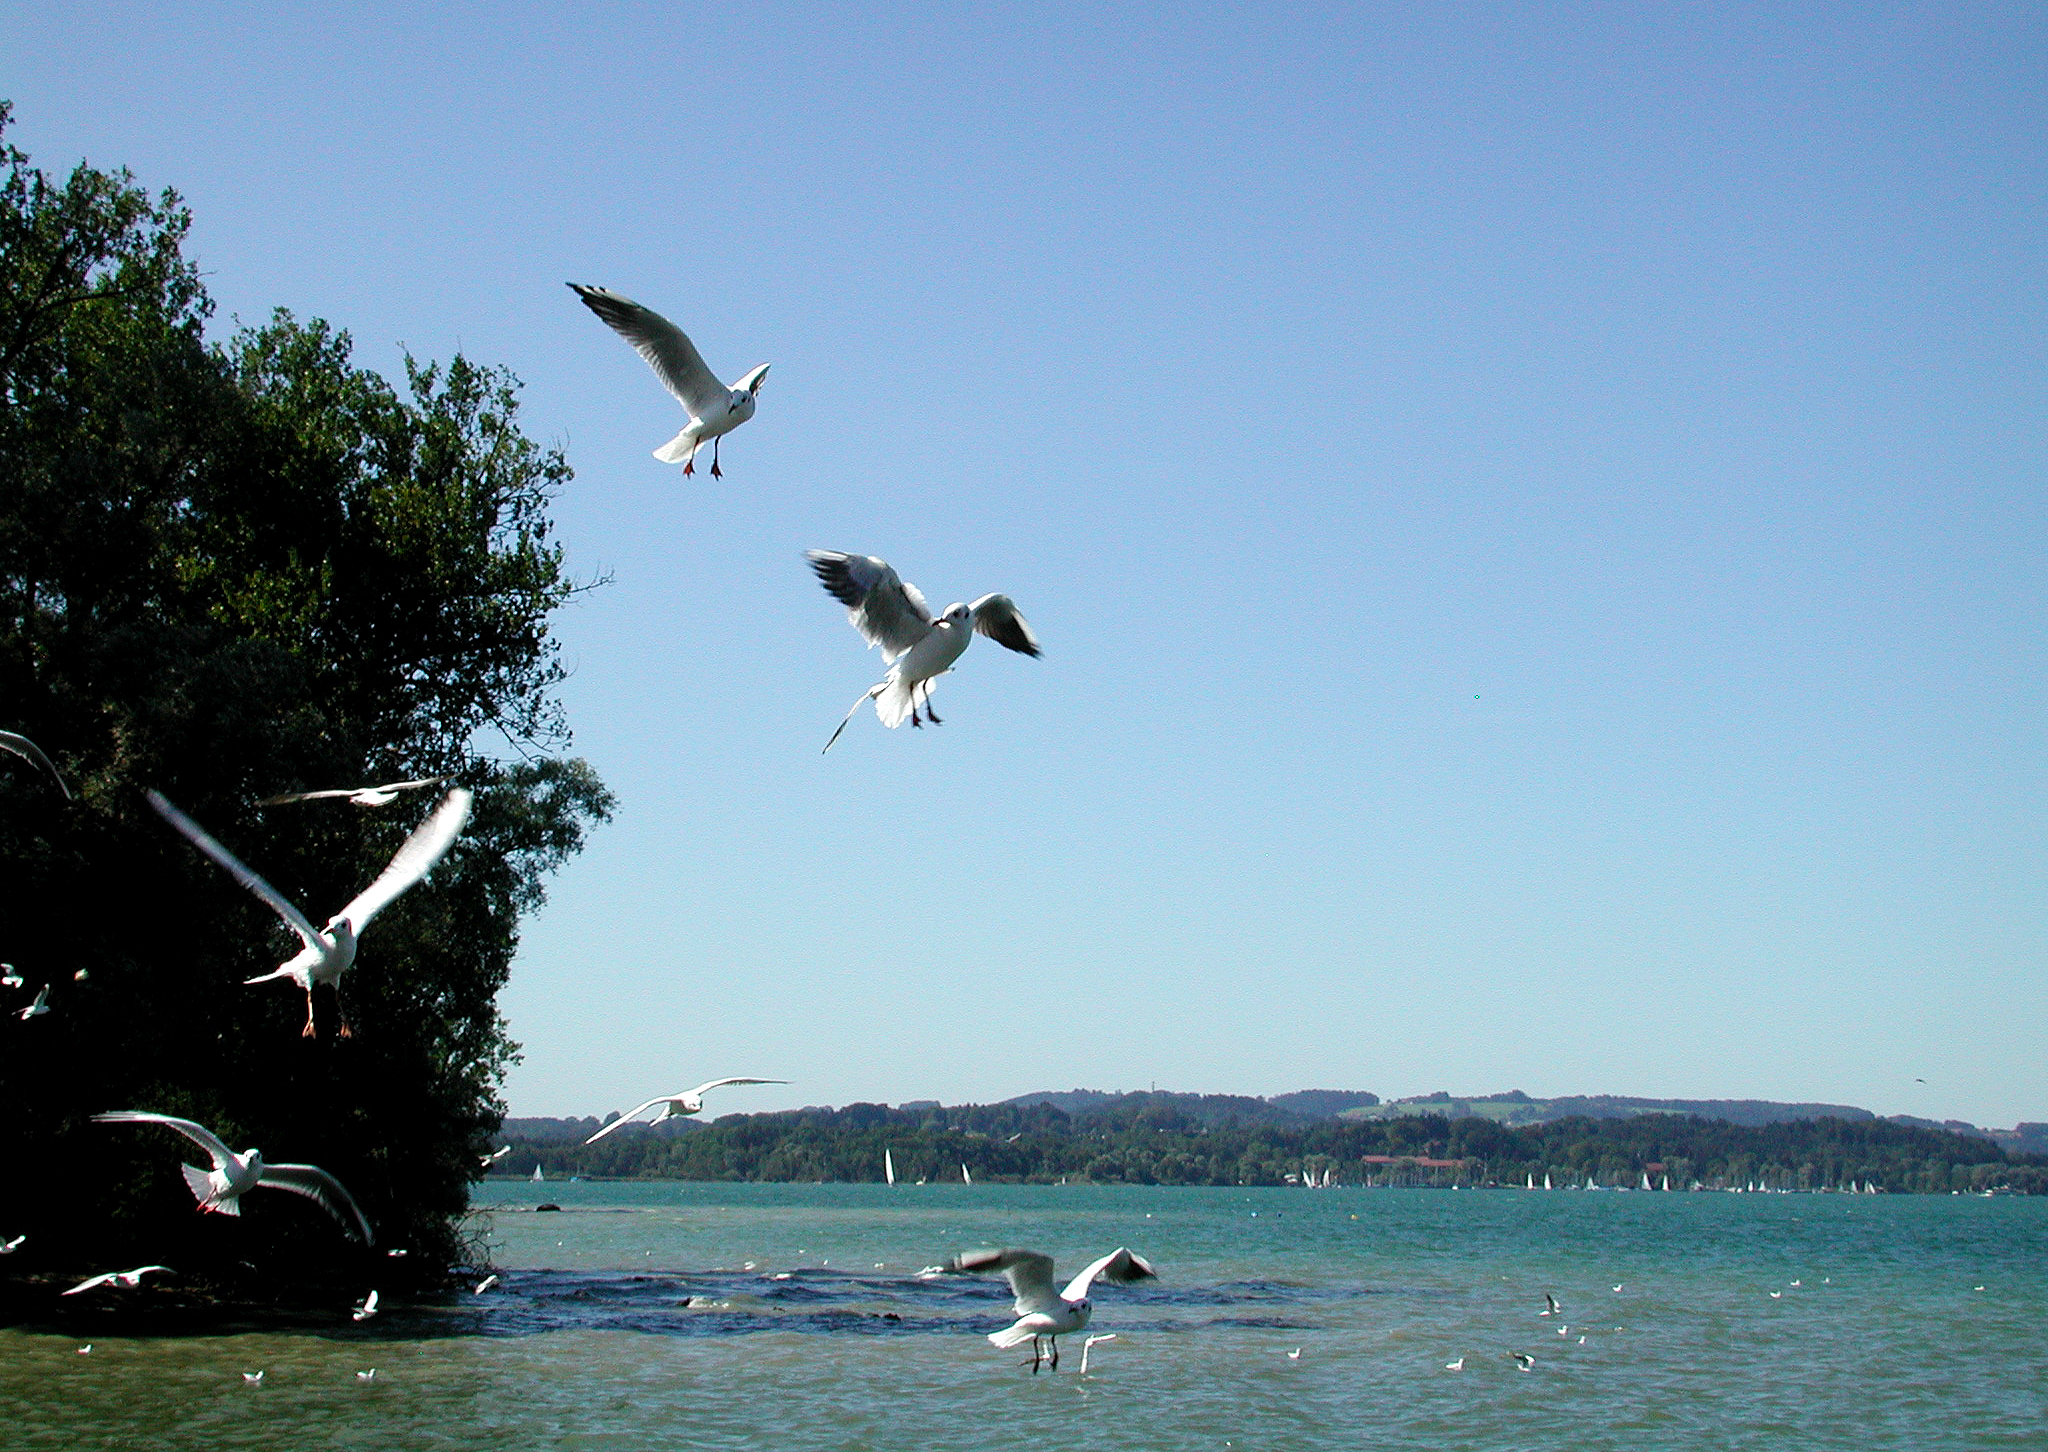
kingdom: Animalia
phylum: Chordata
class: Aves
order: Charadriiformes
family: Laridae
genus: Chroicocephalus
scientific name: Chroicocephalus ridibundus
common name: Black-headed gull
